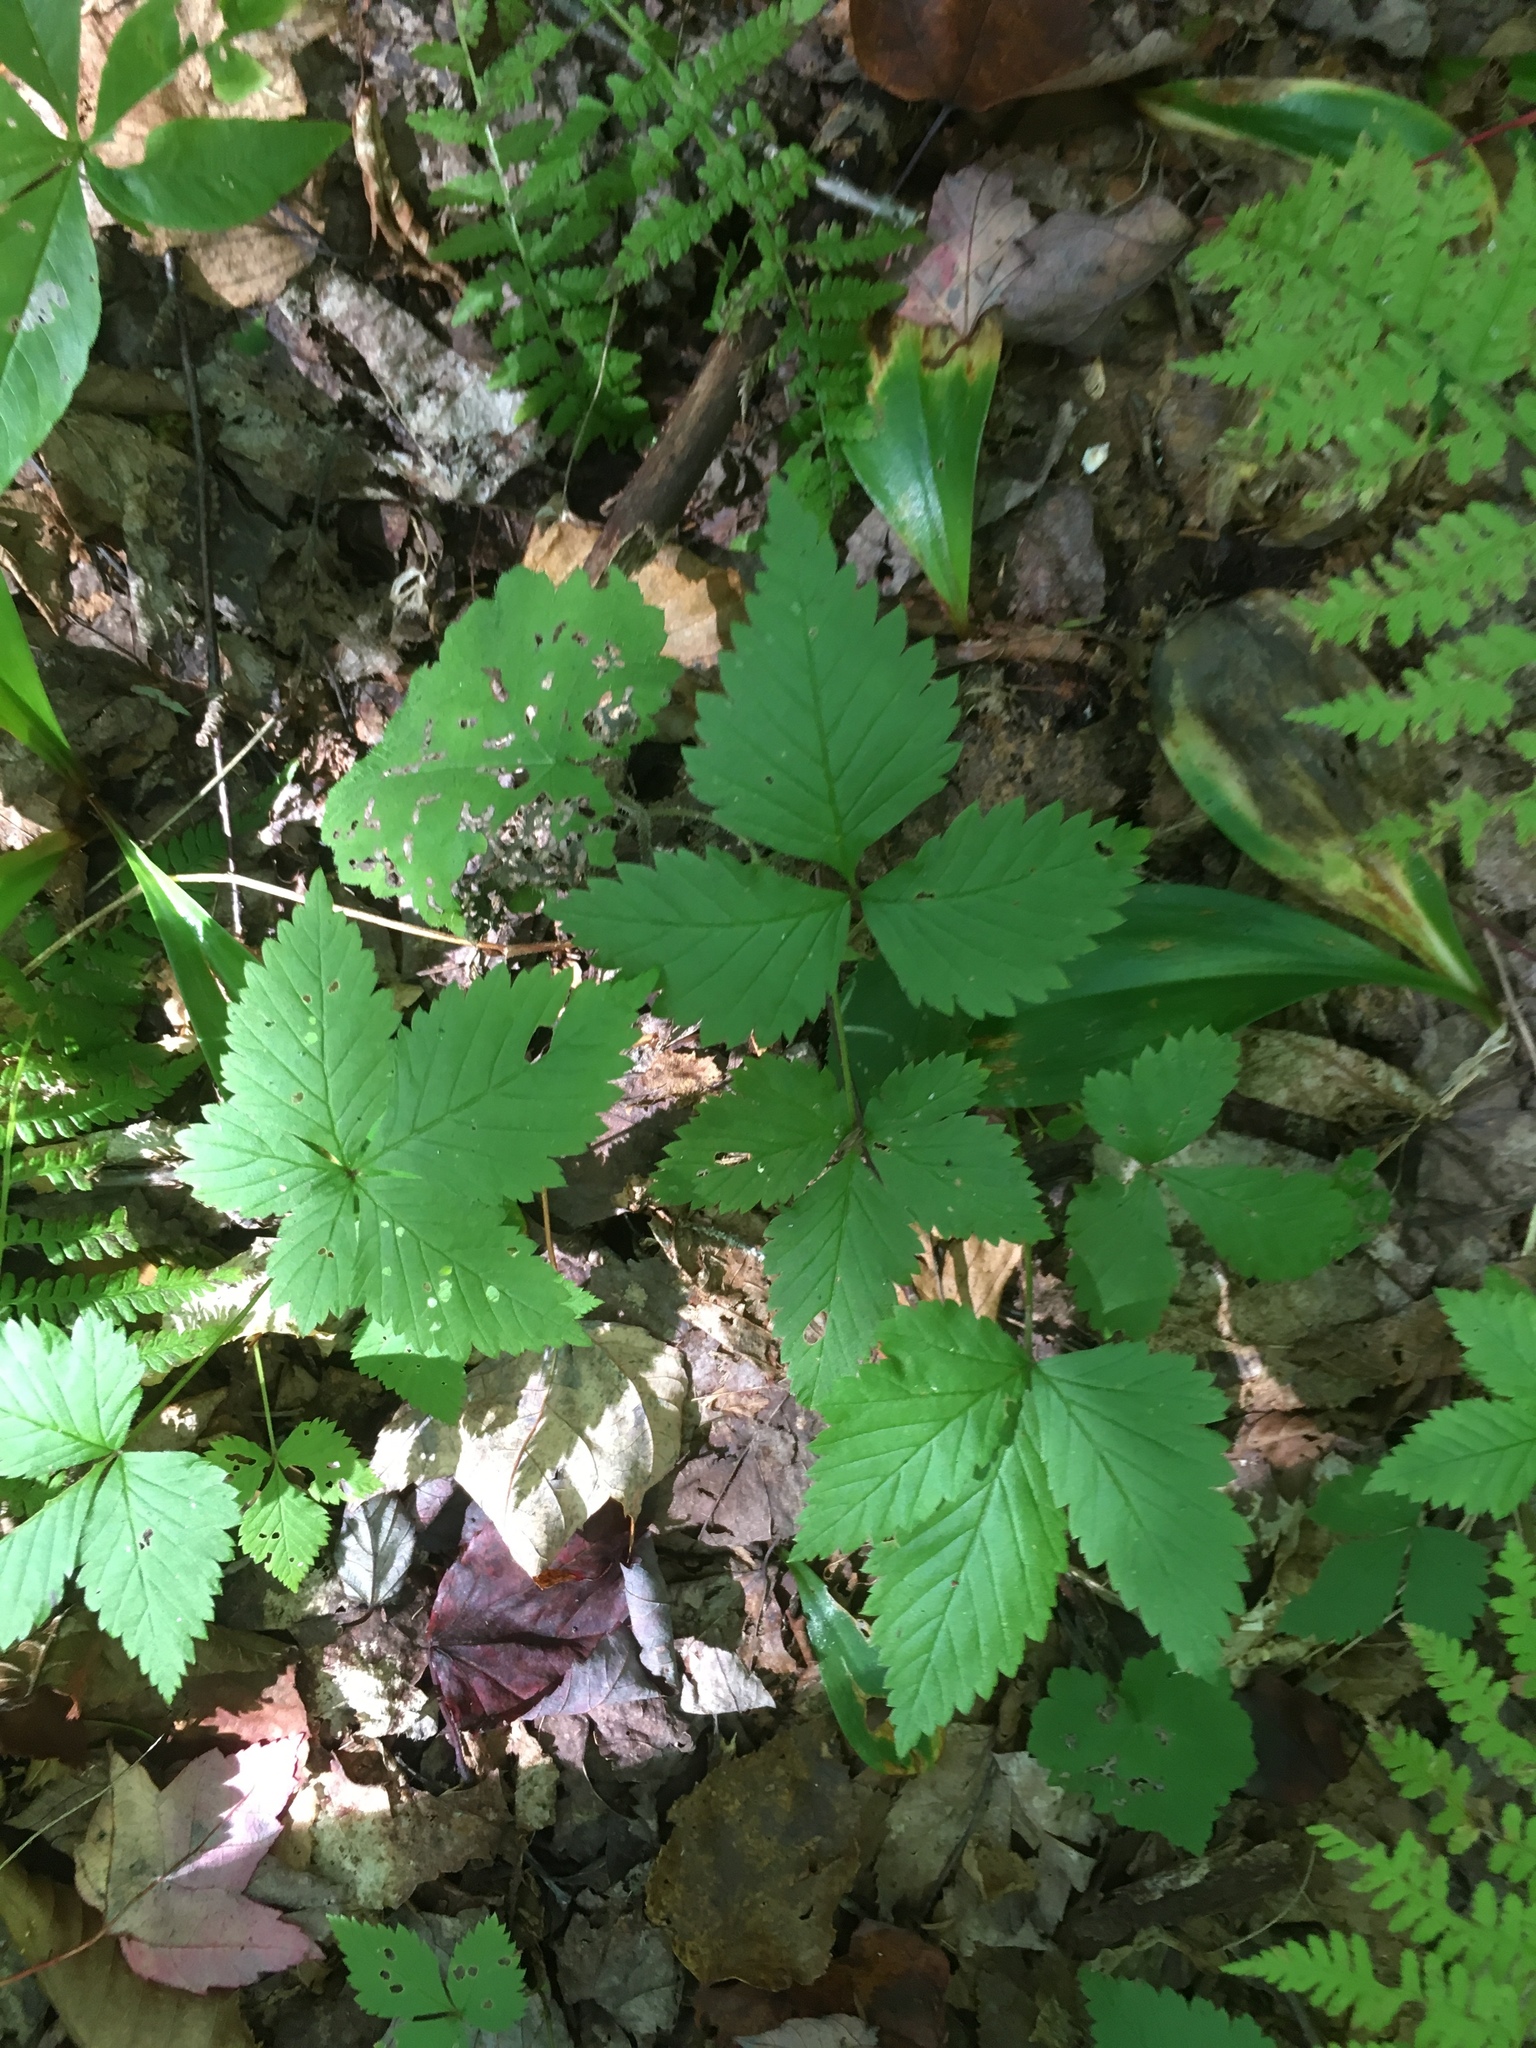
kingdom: Plantae
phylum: Tracheophyta
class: Magnoliopsida
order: Rosales
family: Rosaceae
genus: Rubus
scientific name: Rubus pubescens
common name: Dwarf raspberry
